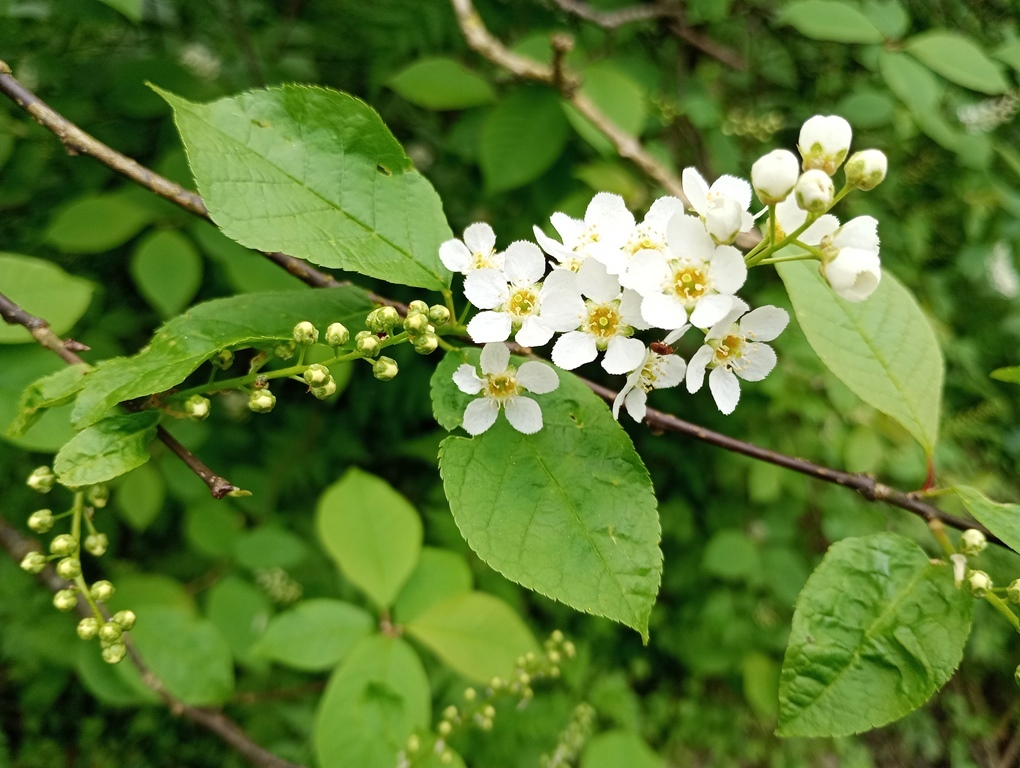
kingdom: Plantae
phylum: Tracheophyta
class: Magnoliopsida
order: Rosales
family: Rosaceae
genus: Prunus
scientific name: Prunus padus
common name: Bird cherry
